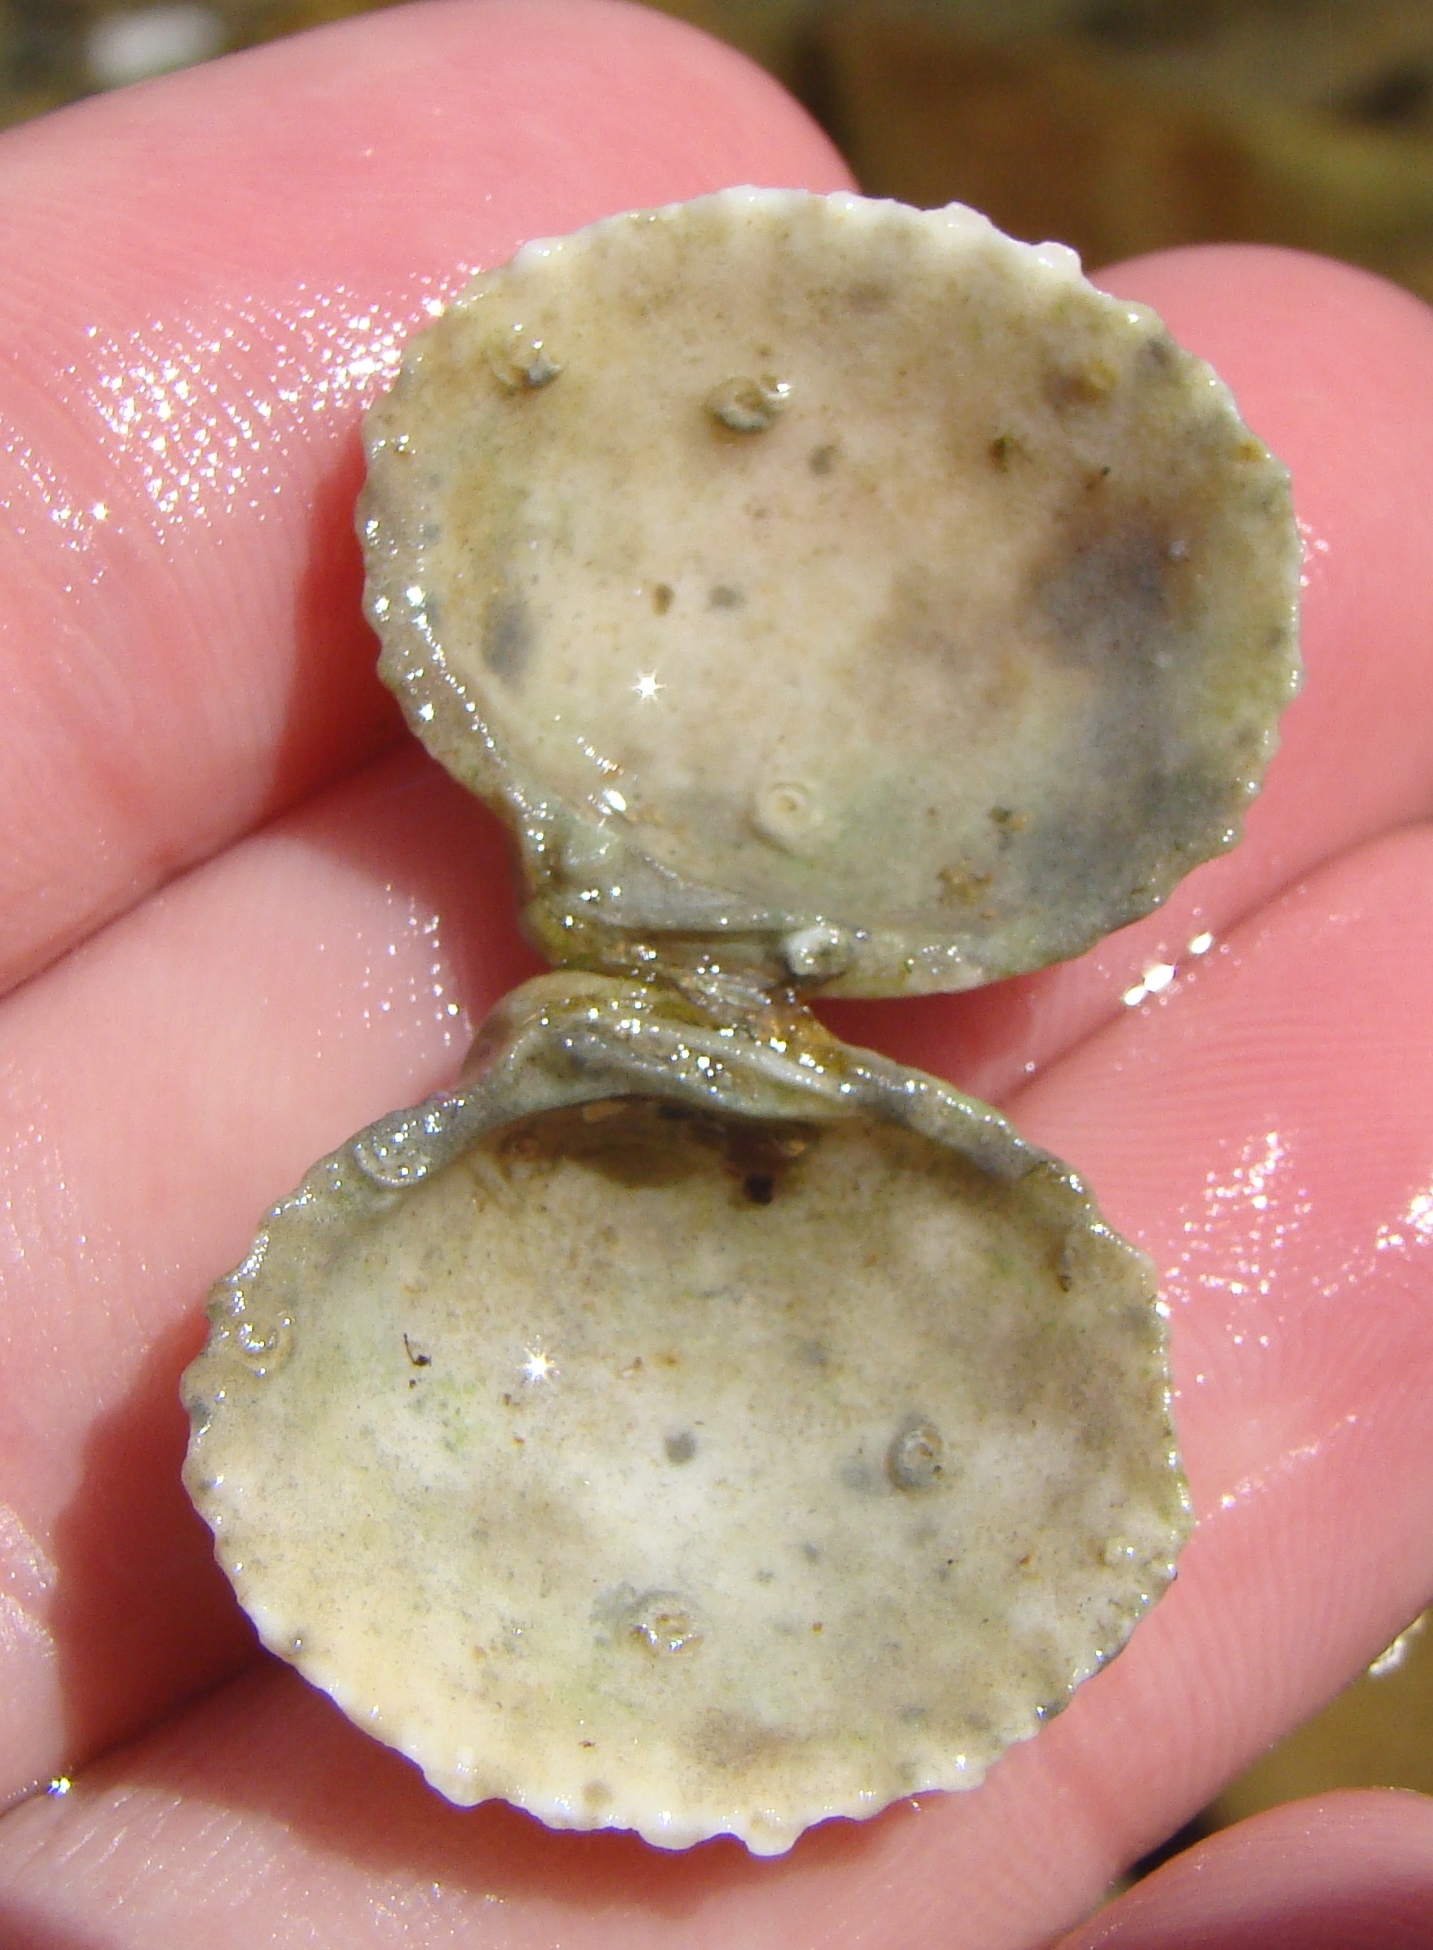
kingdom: Animalia
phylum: Mollusca
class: Bivalvia
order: Carditida
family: Carditidae
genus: Purpurocardia
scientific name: Purpurocardia purpurata
